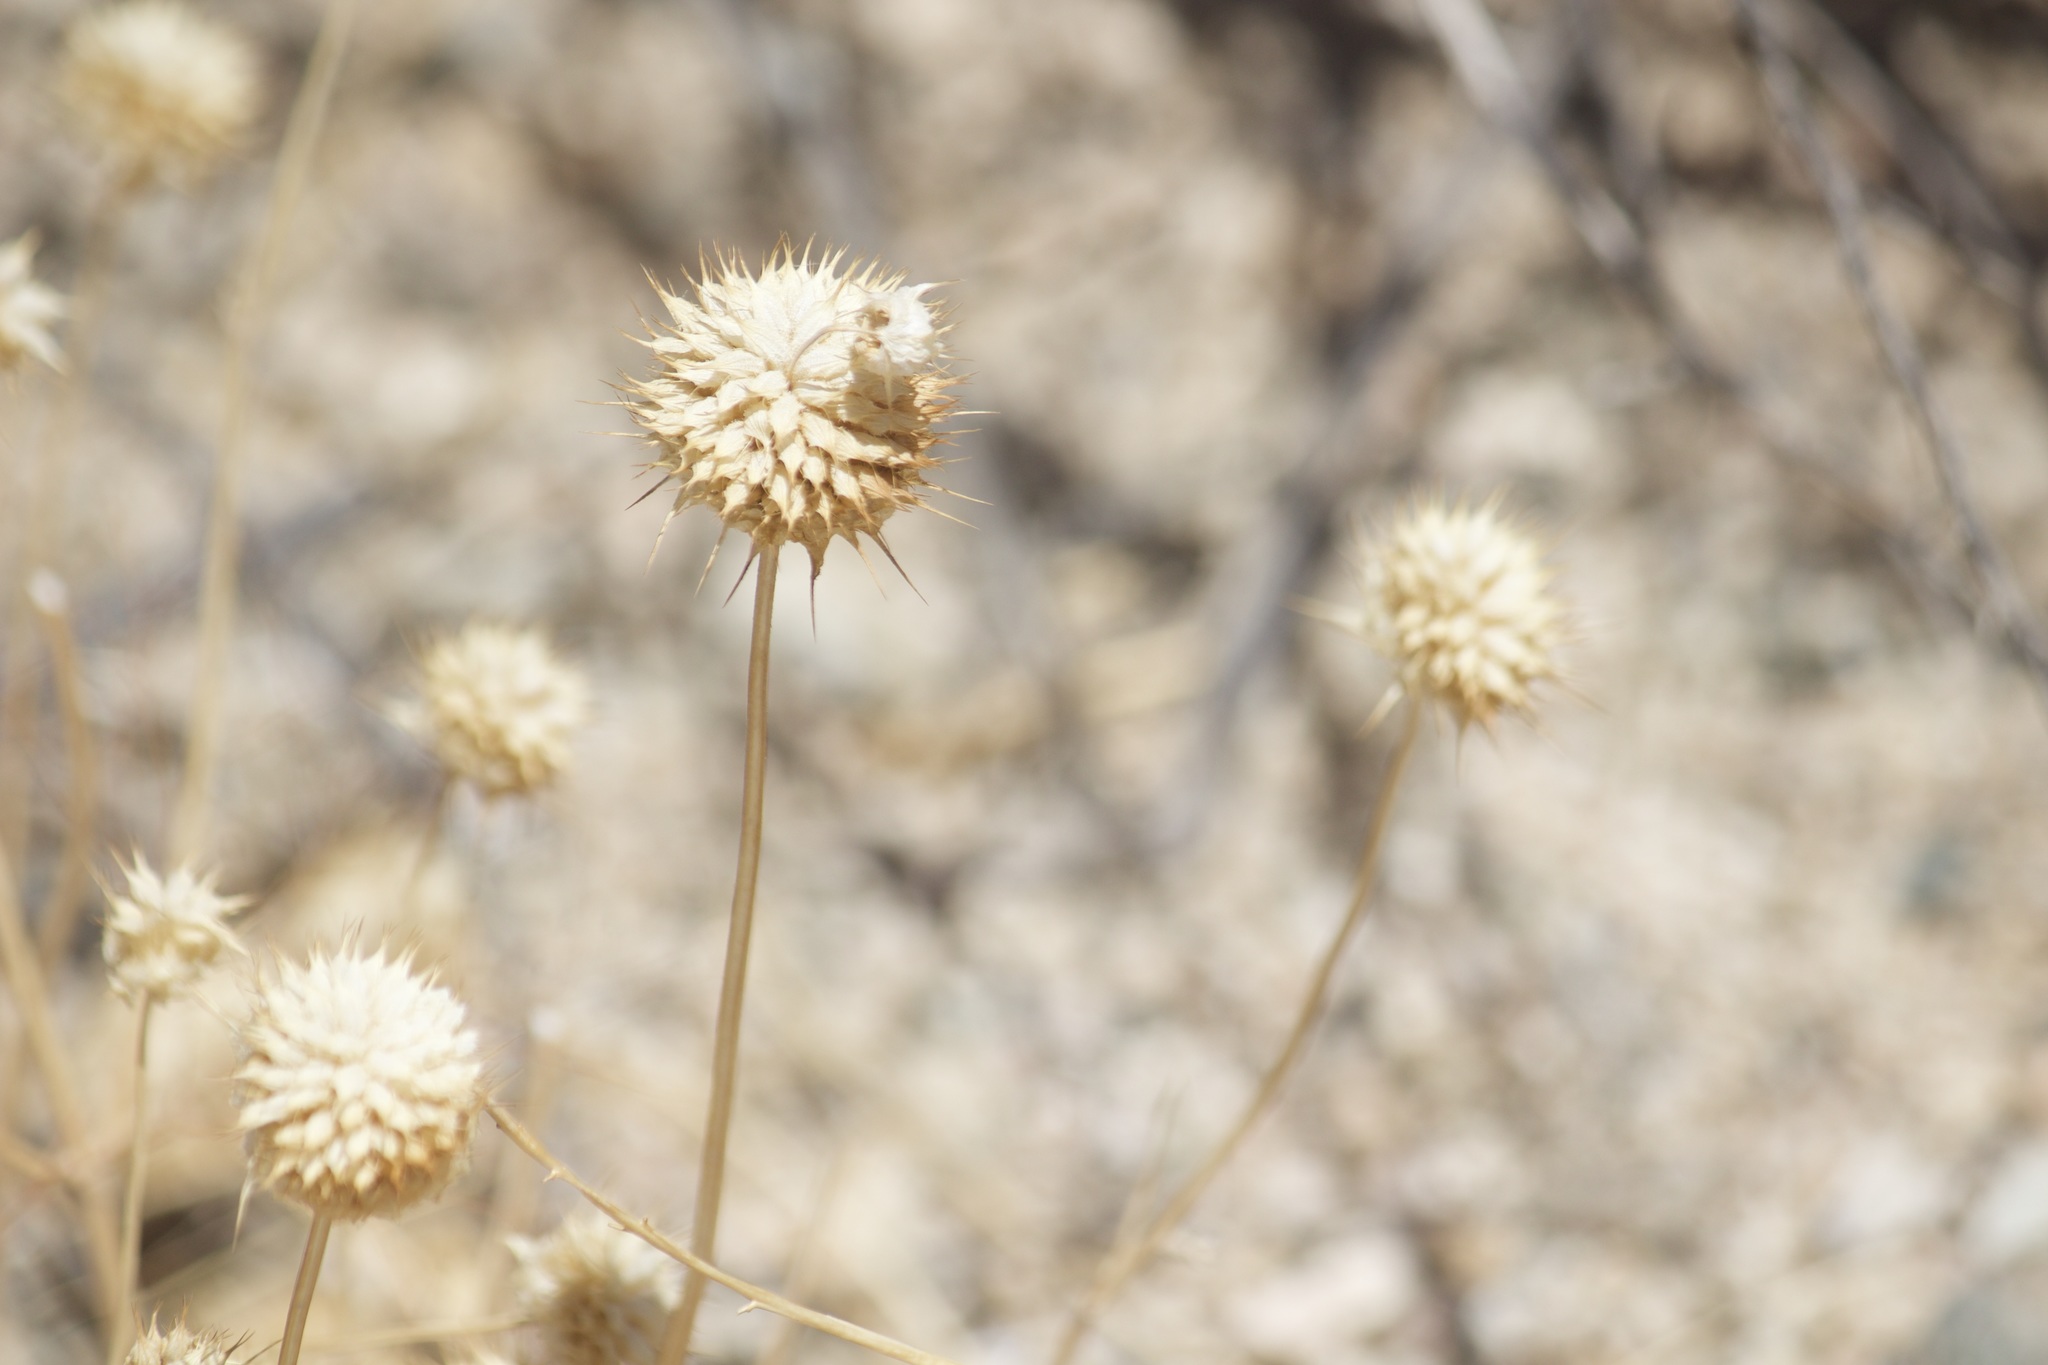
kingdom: Plantae
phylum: Tracheophyta
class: Magnoliopsida
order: Lamiales
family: Lamiaceae
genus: Salvia
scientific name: Salvia columbariae
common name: Chia
